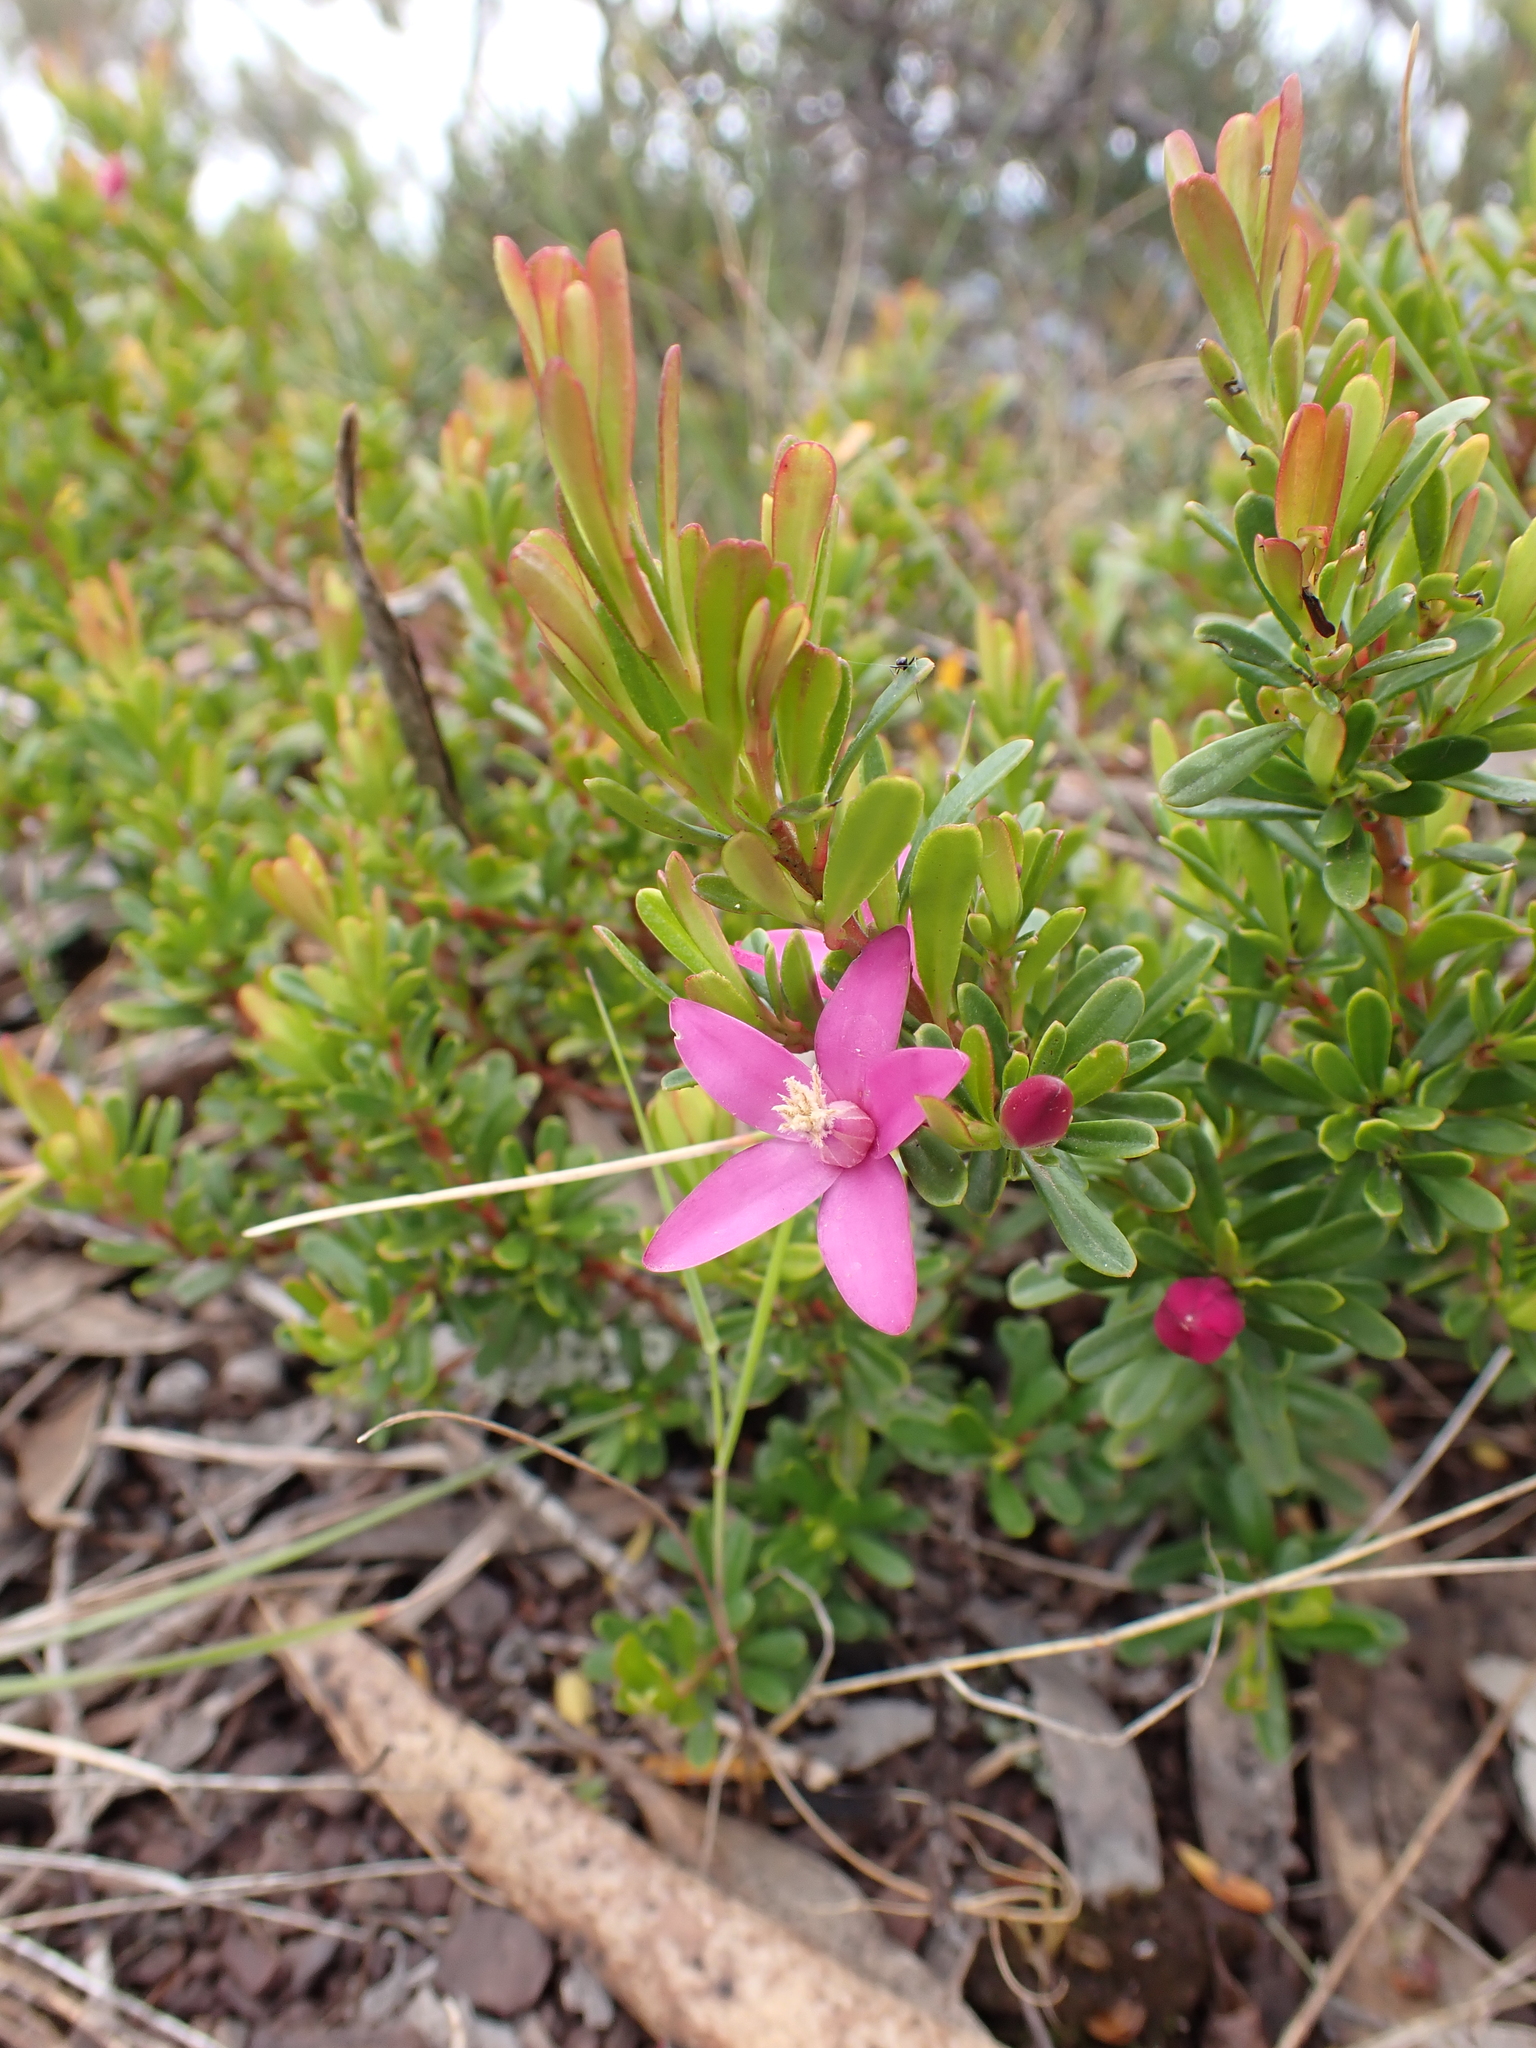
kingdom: Plantae
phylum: Tracheophyta
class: Magnoliopsida
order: Sapindales
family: Rutaceae
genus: Crowea
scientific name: Crowea exalata
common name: Small crowea
